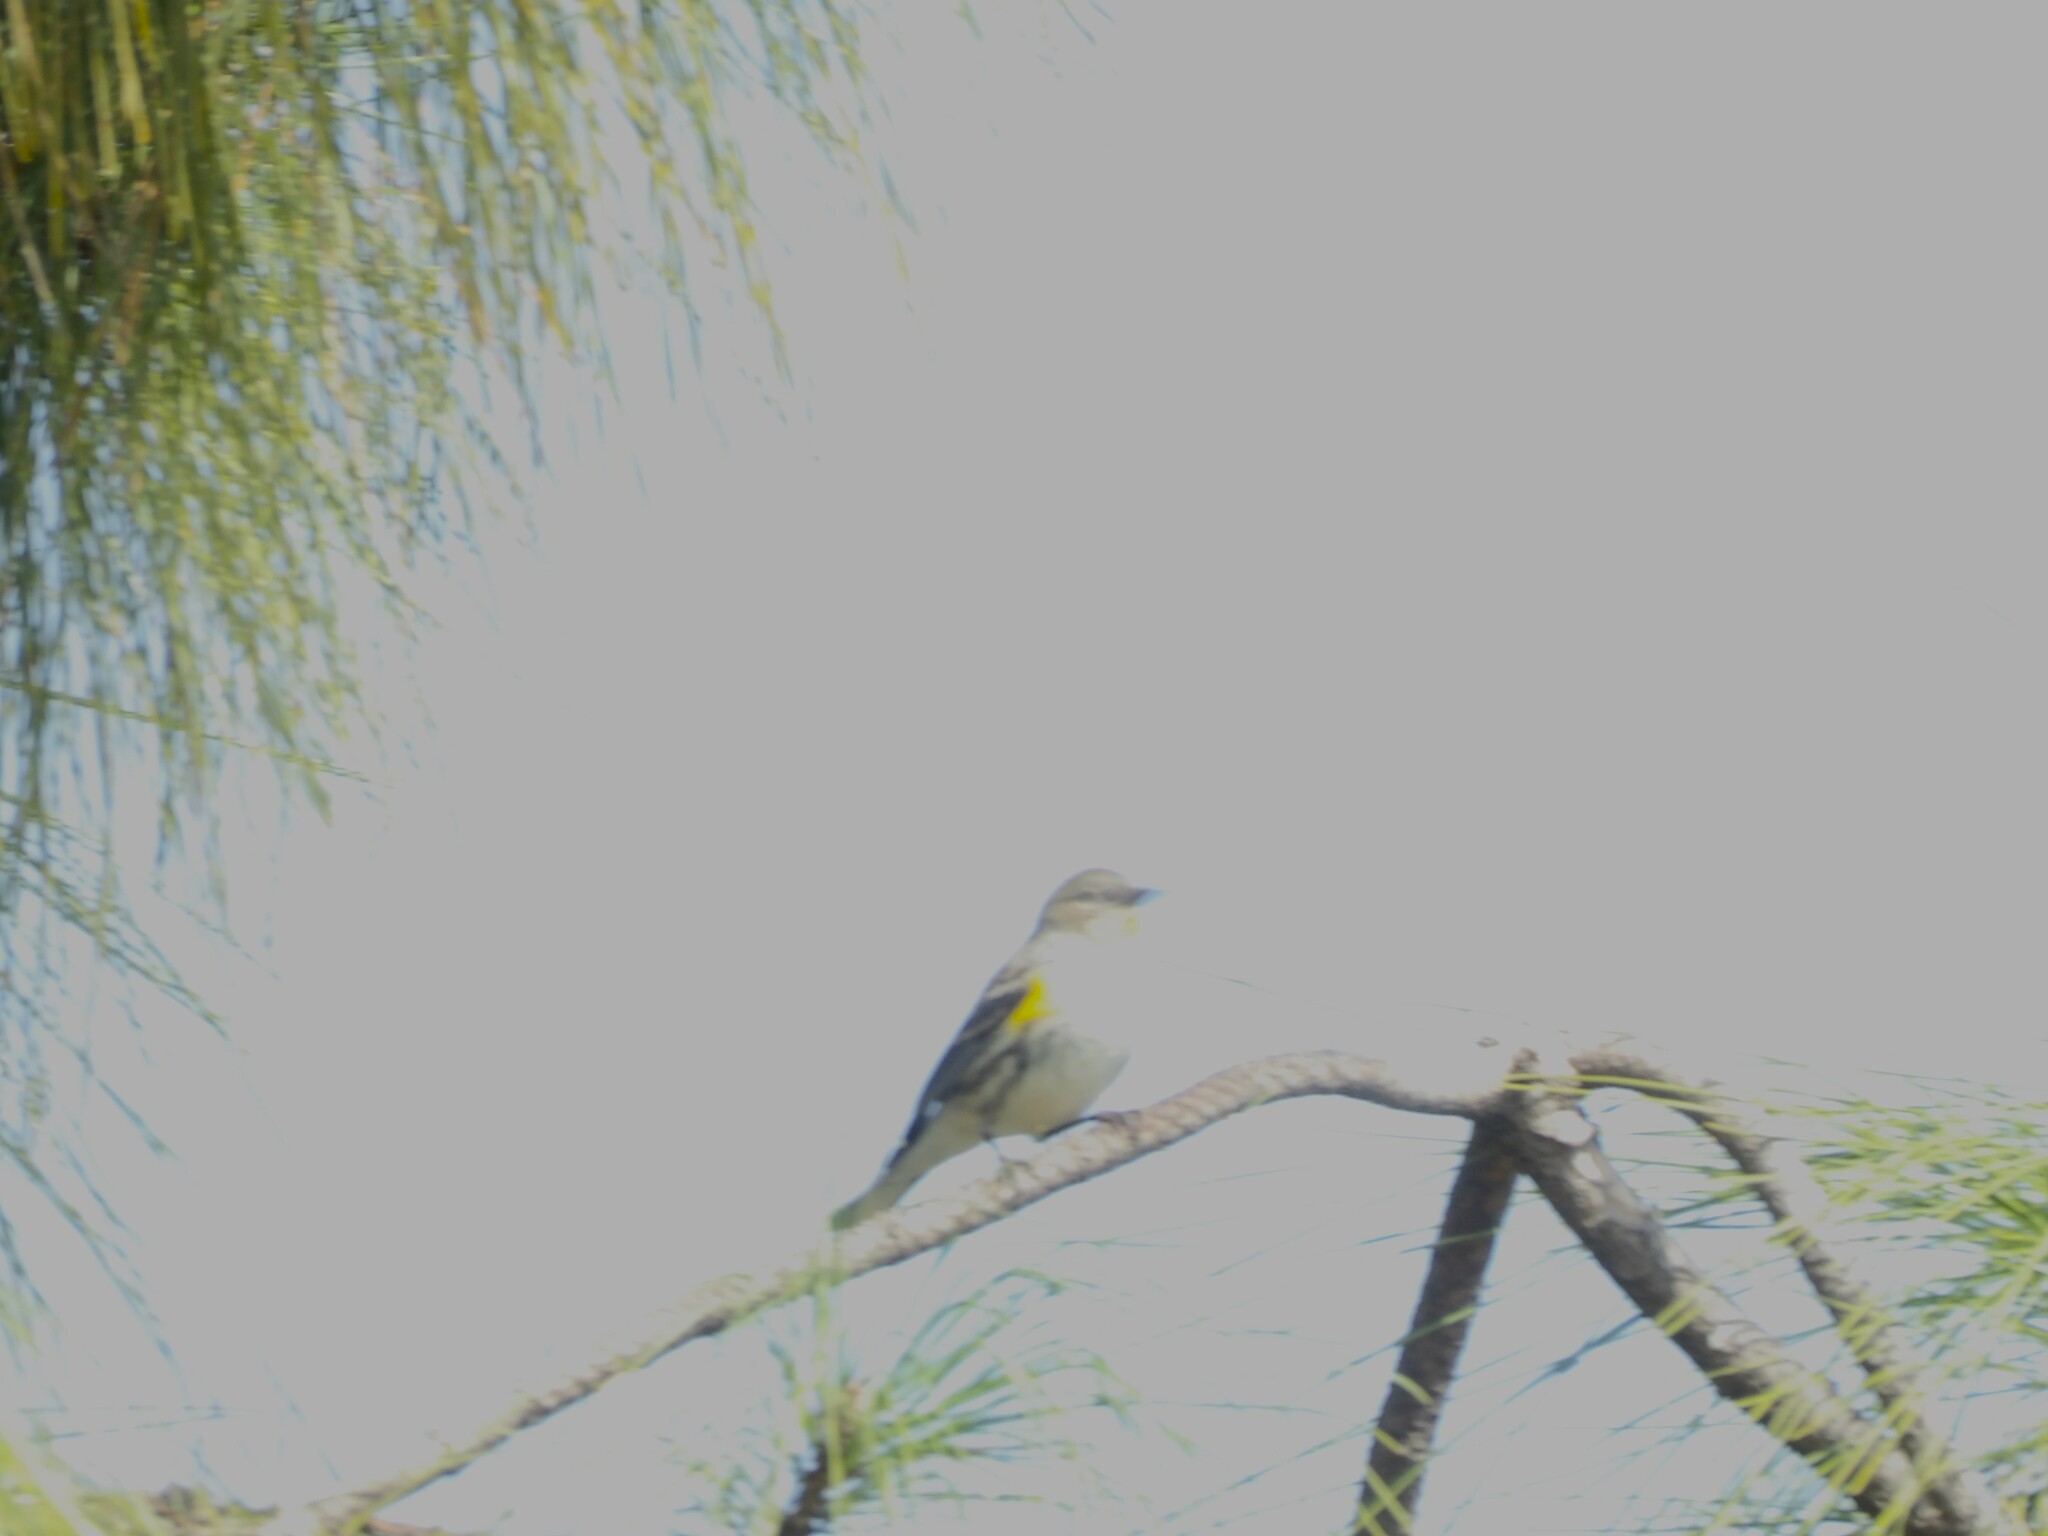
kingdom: Animalia
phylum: Chordata
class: Aves
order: Passeriformes
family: Parulidae
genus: Setophaga
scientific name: Setophaga coronata
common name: Myrtle warbler
